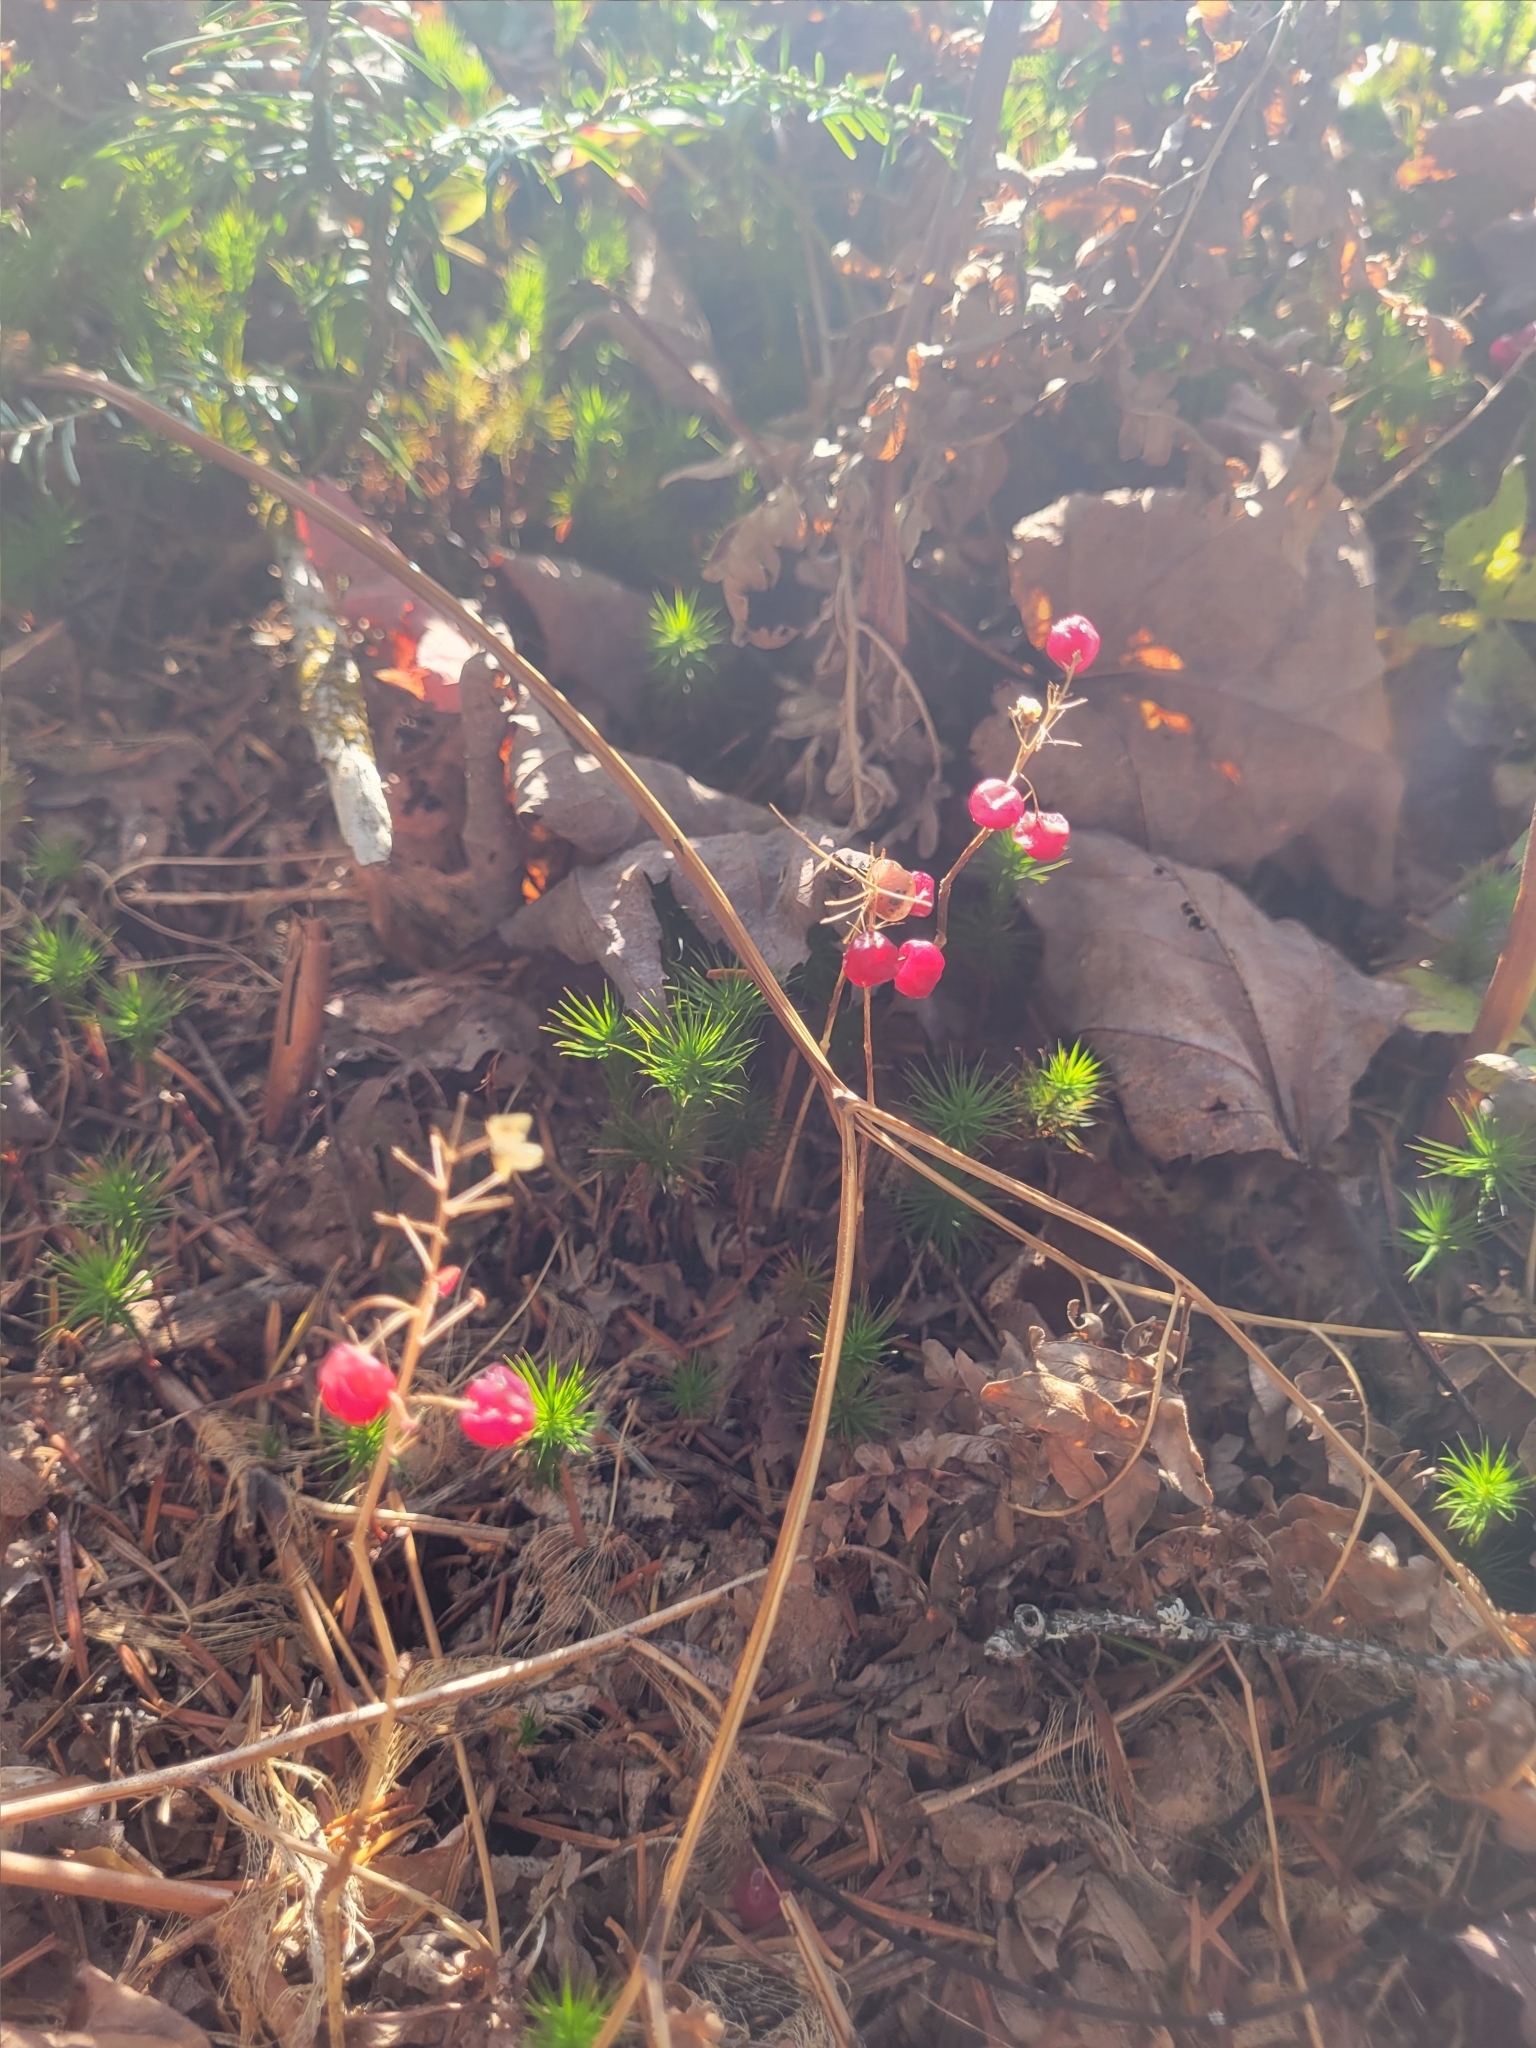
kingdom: Plantae
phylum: Tracheophyta
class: Liliopsida
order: Asparagales
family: Asparagaceae
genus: Maianthemum
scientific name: Maianthemum canadense
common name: False lily-of-the-valley
